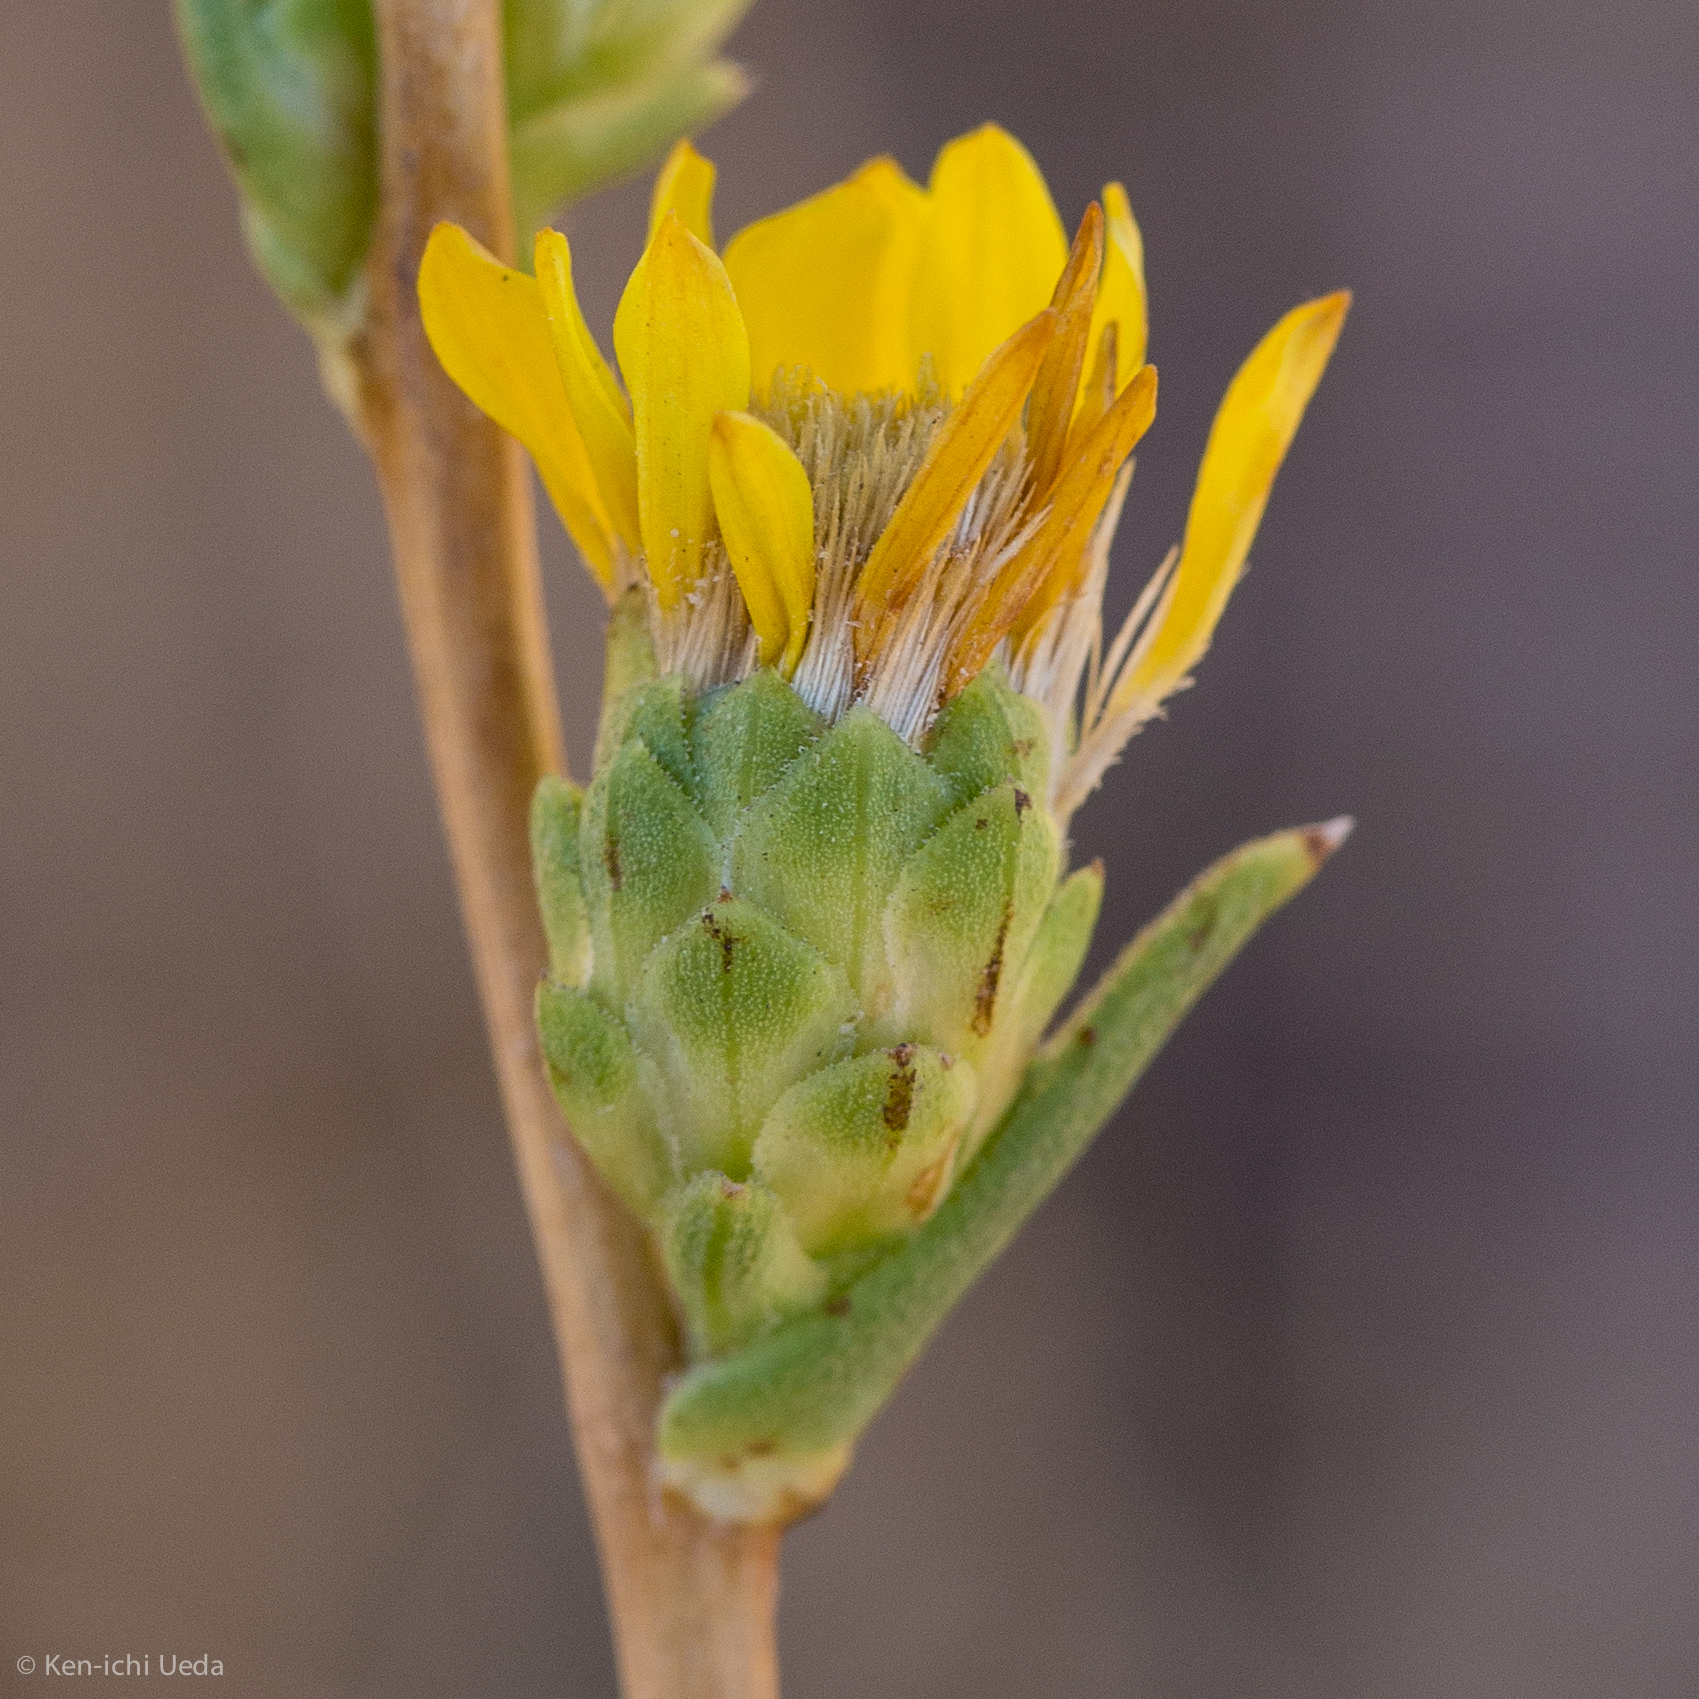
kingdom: Plantae
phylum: Tracheophyta
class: Magnoliopsida
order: Asterales
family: Asteraceae
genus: Pyrrocoma
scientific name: Pyrrocoma racemosa
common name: Clustered goldenweed
